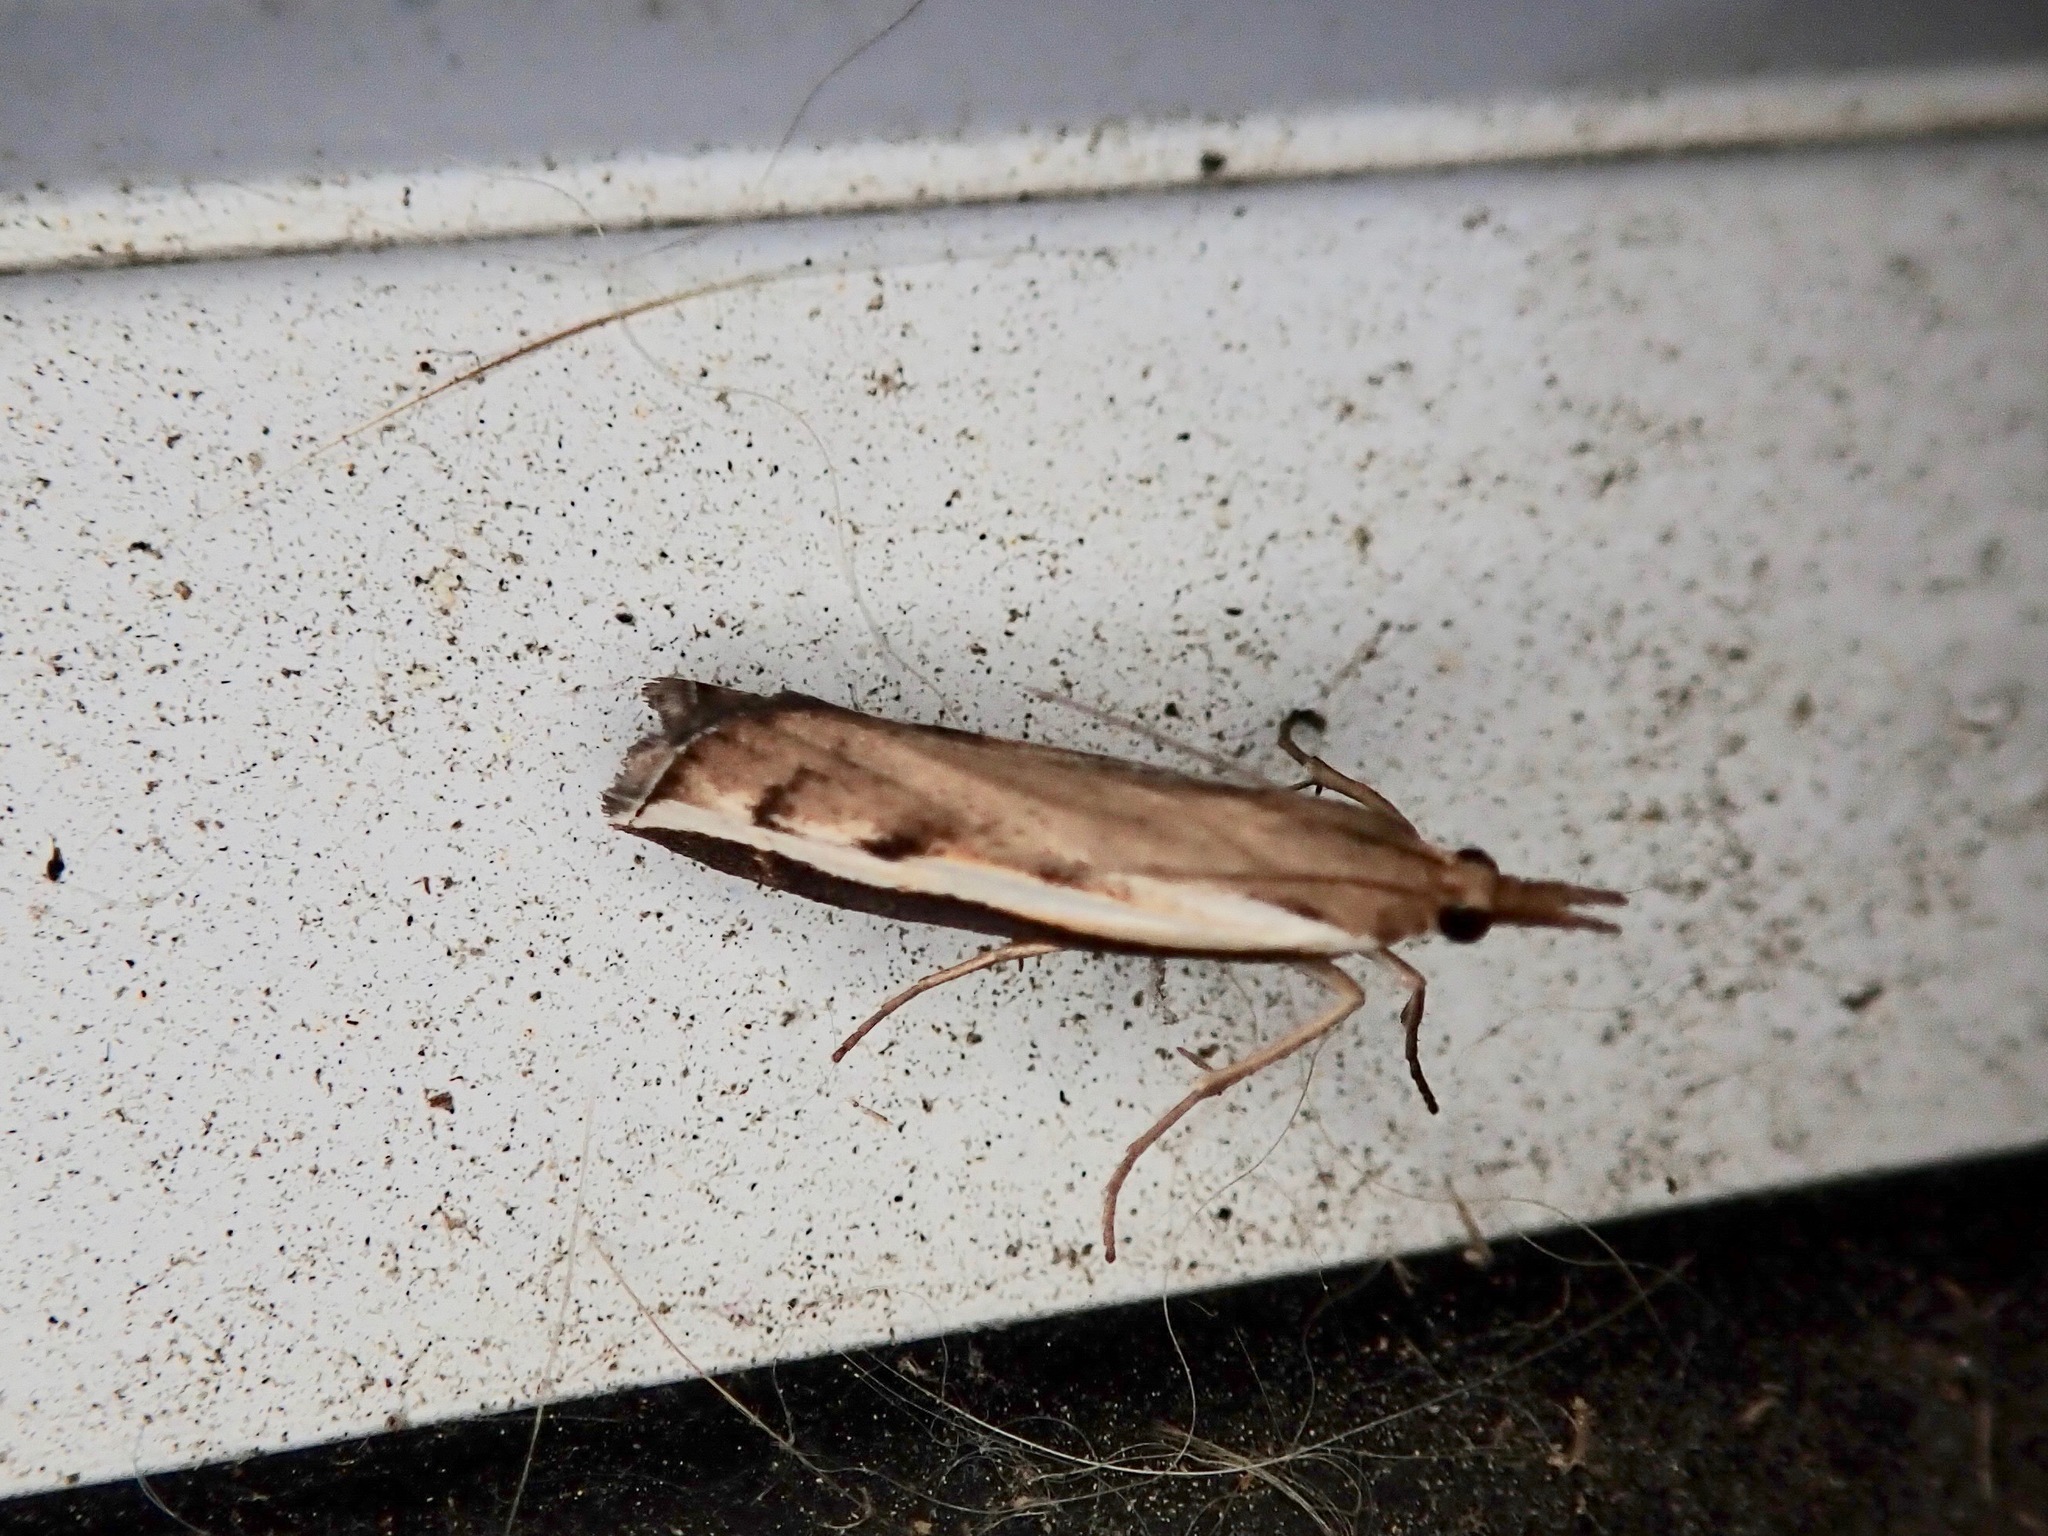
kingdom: Animalia
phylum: Arthropoda
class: Insecta
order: Lepidoptera
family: Crambidae
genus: Orocrambus
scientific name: Orocrambus flexuosellus
